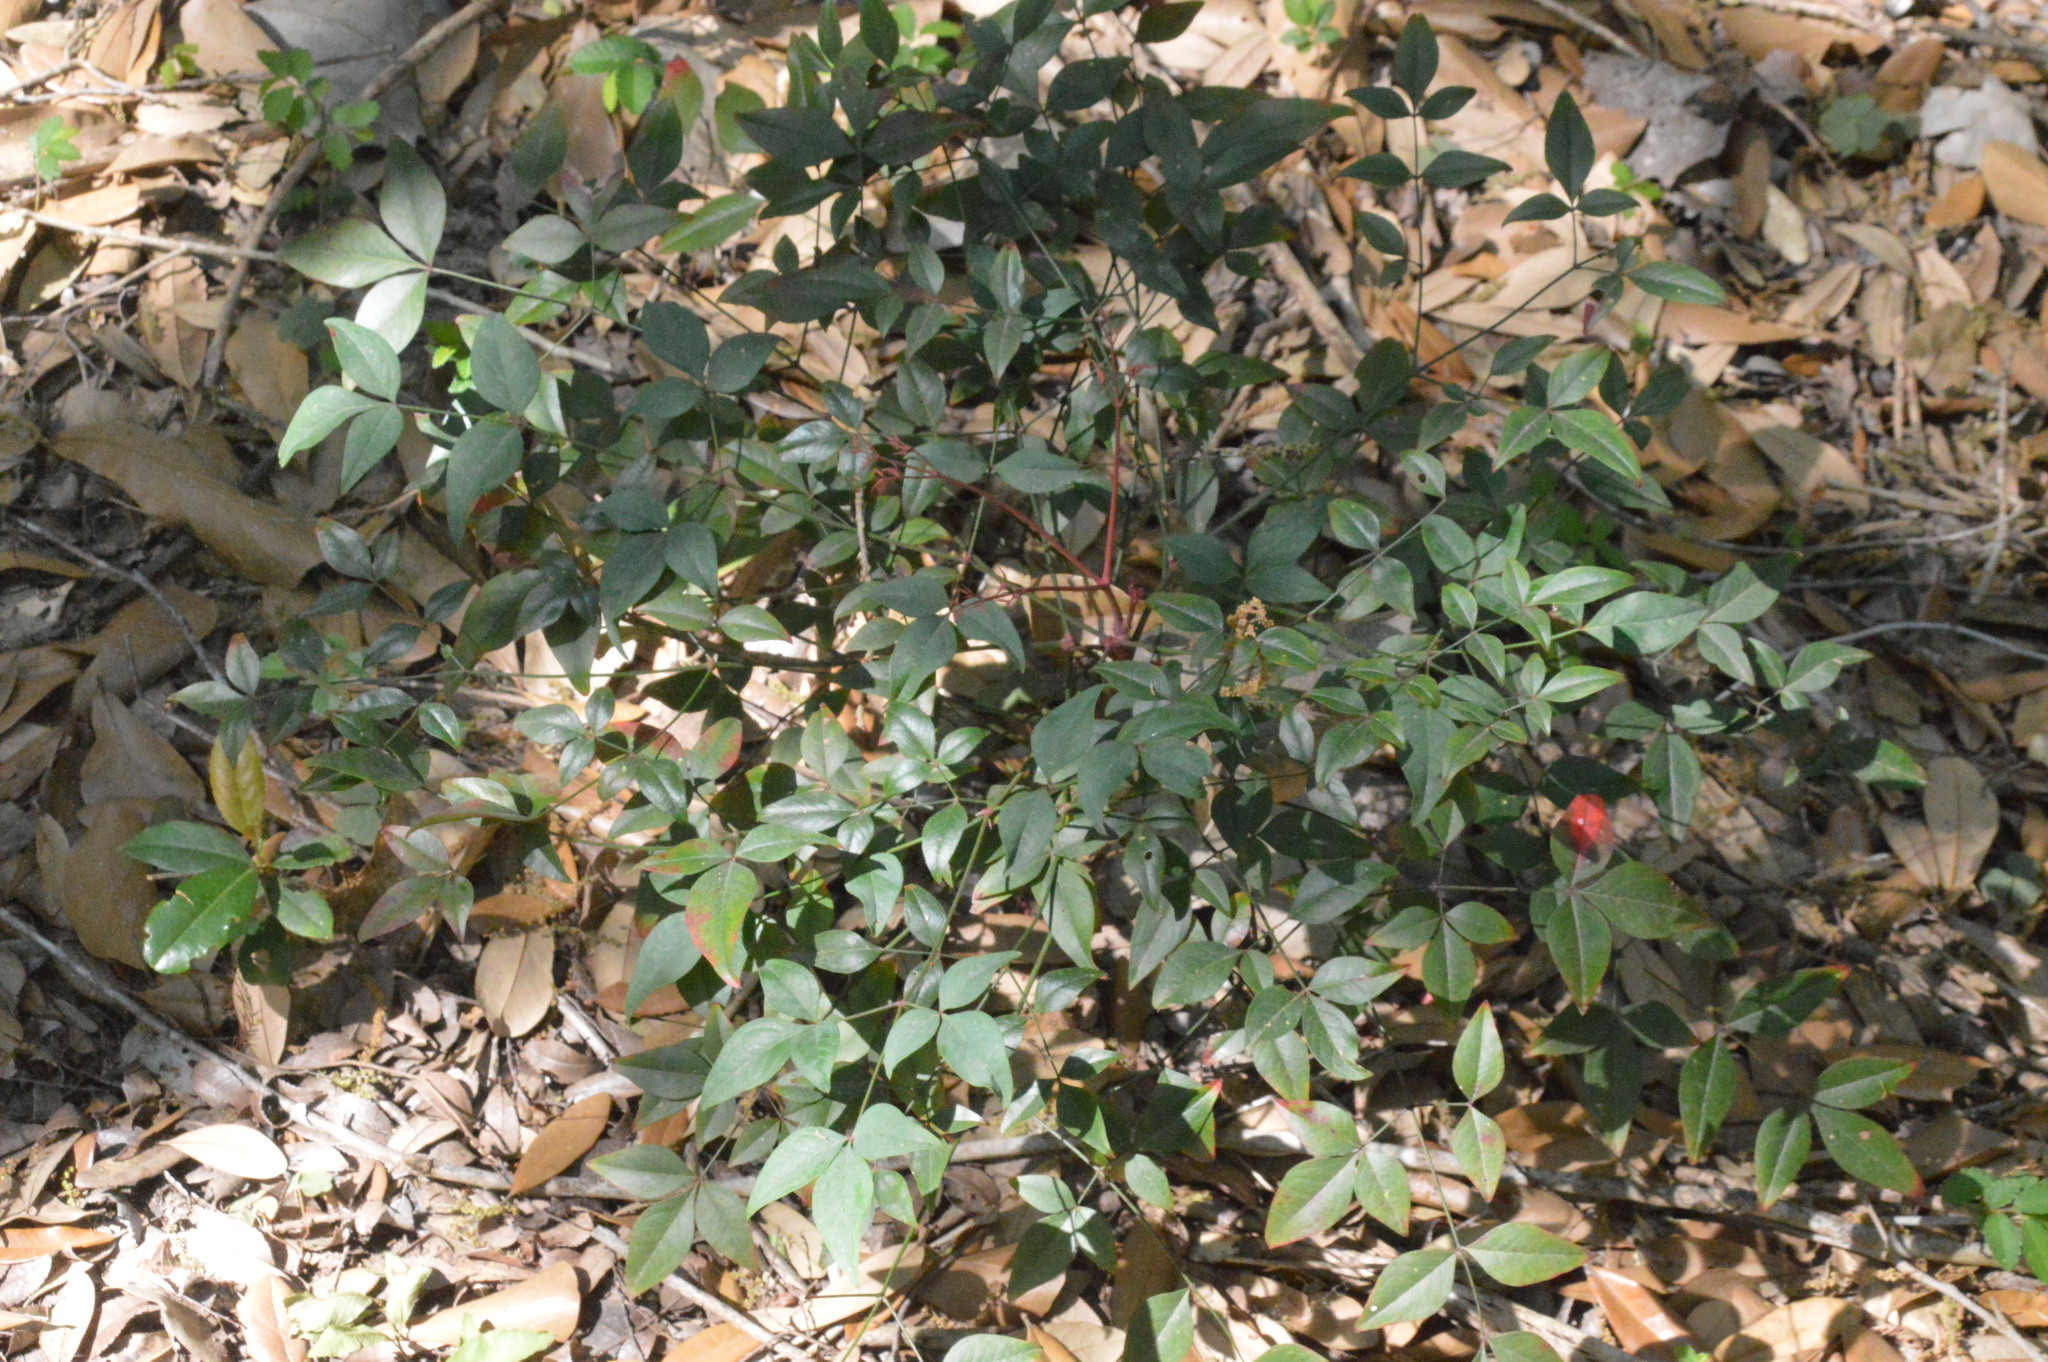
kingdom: Plantae
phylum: Tracheophyta
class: Magnoliopsida
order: Ranunculales
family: Berberidaceae
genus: Nandina
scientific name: Nandina domestica
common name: Sacred bamboo
